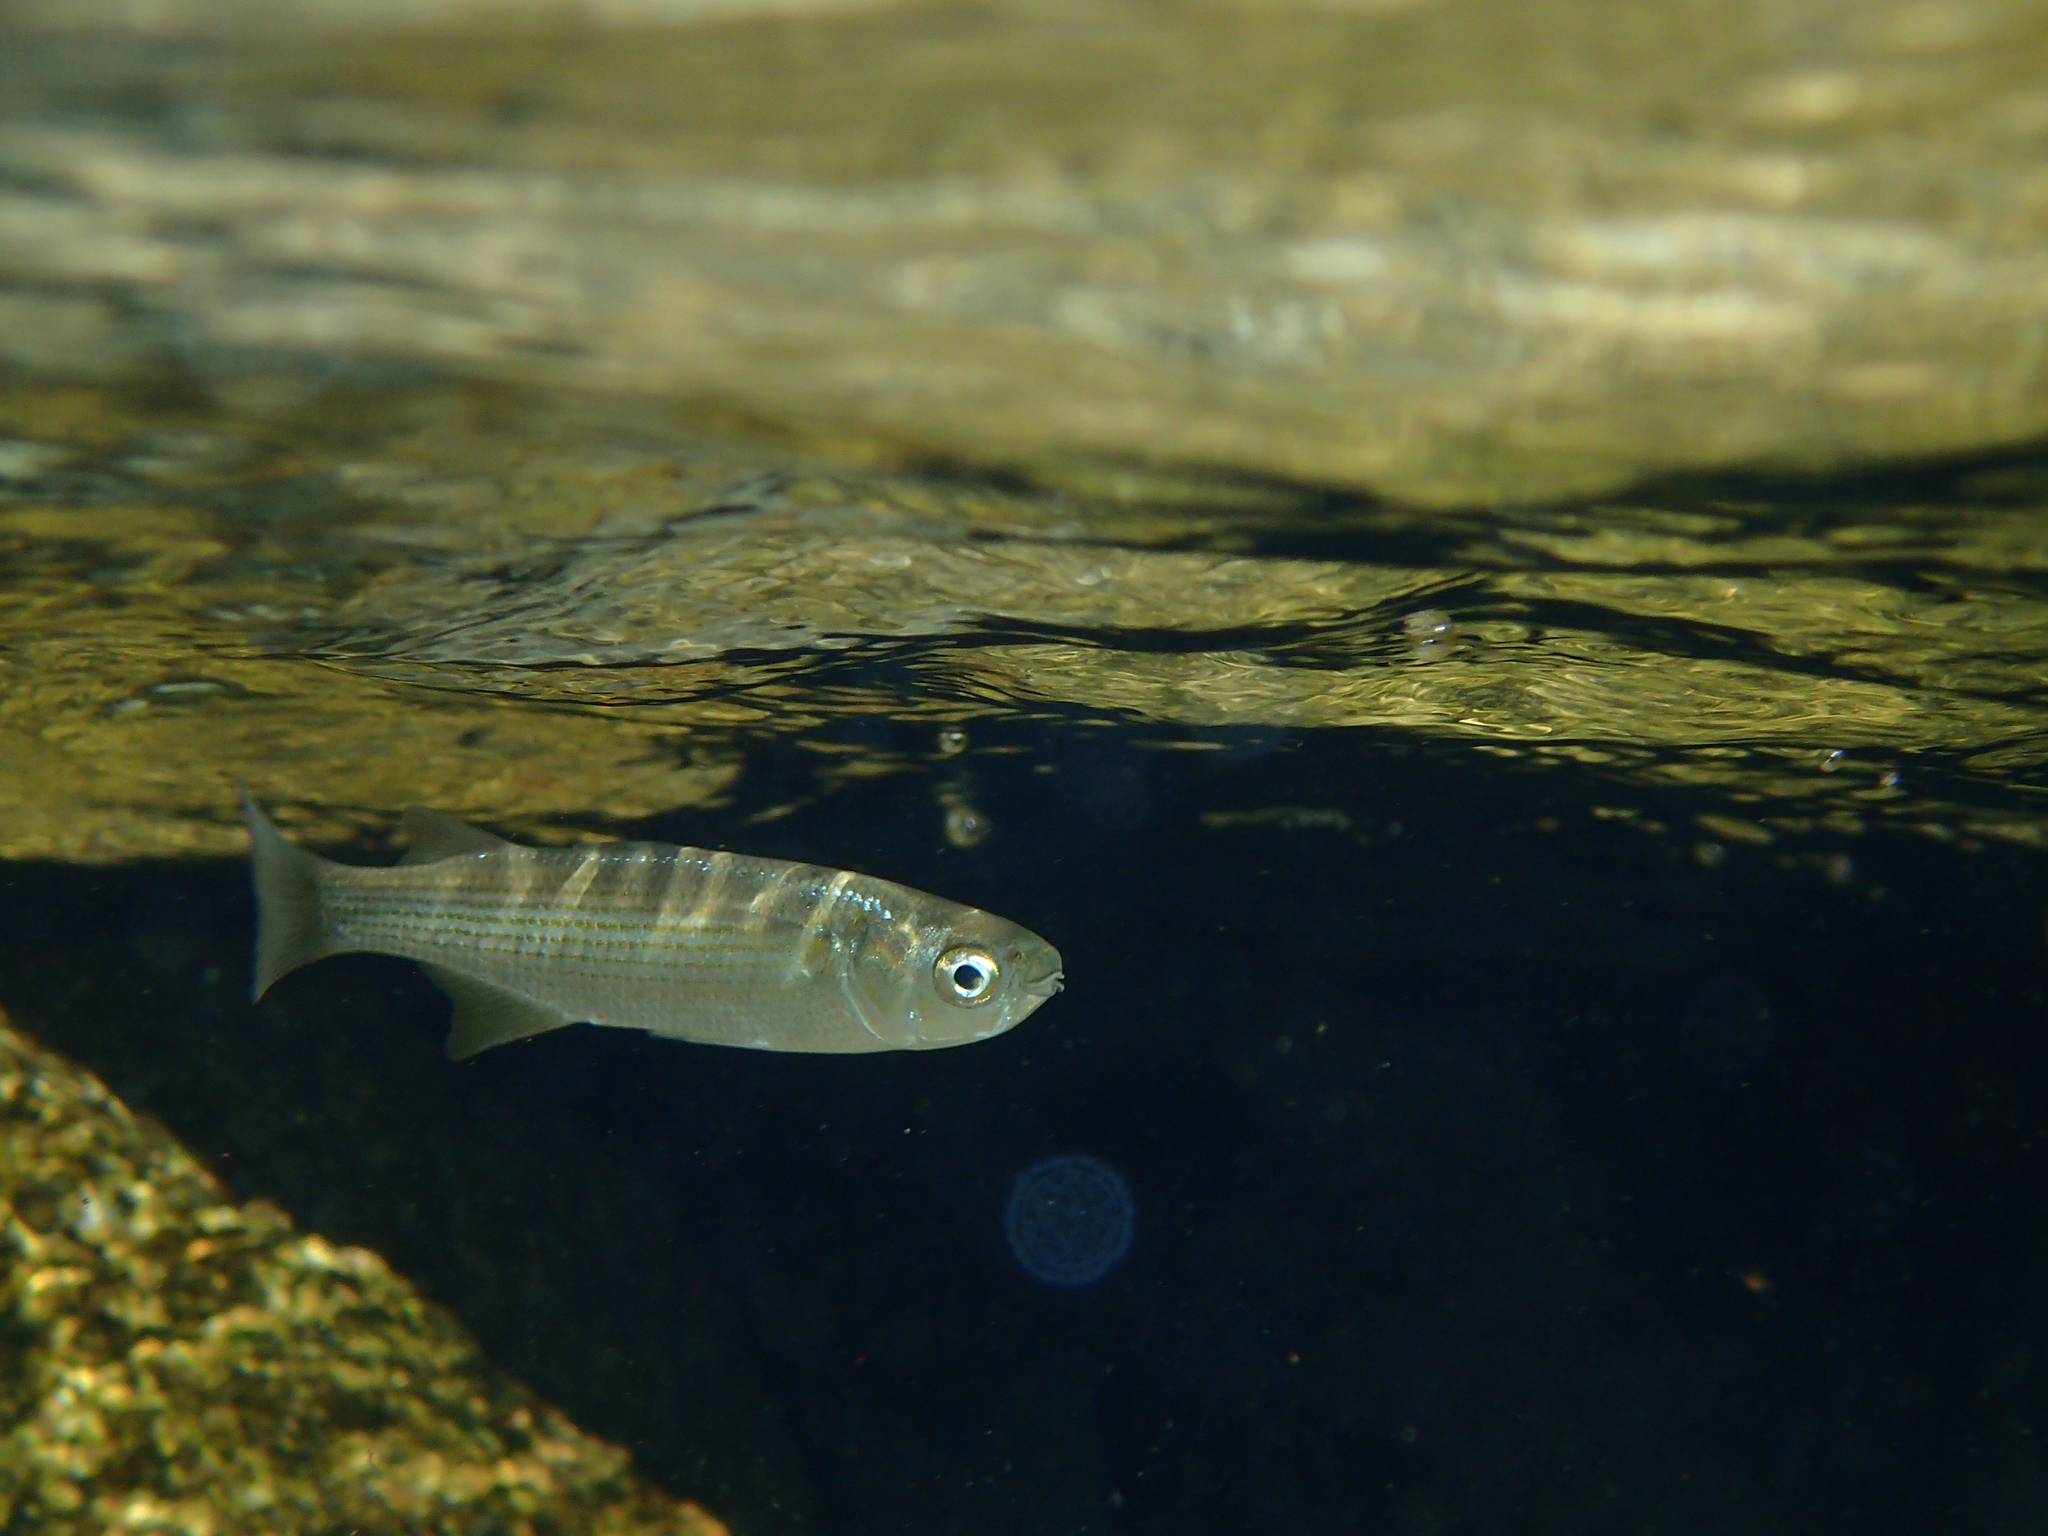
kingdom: Animalia
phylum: Chordata
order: Mugiliformes
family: Mugilidae
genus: Oedalechilus
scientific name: Oedalechilus labeo
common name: Boxlip mullet
